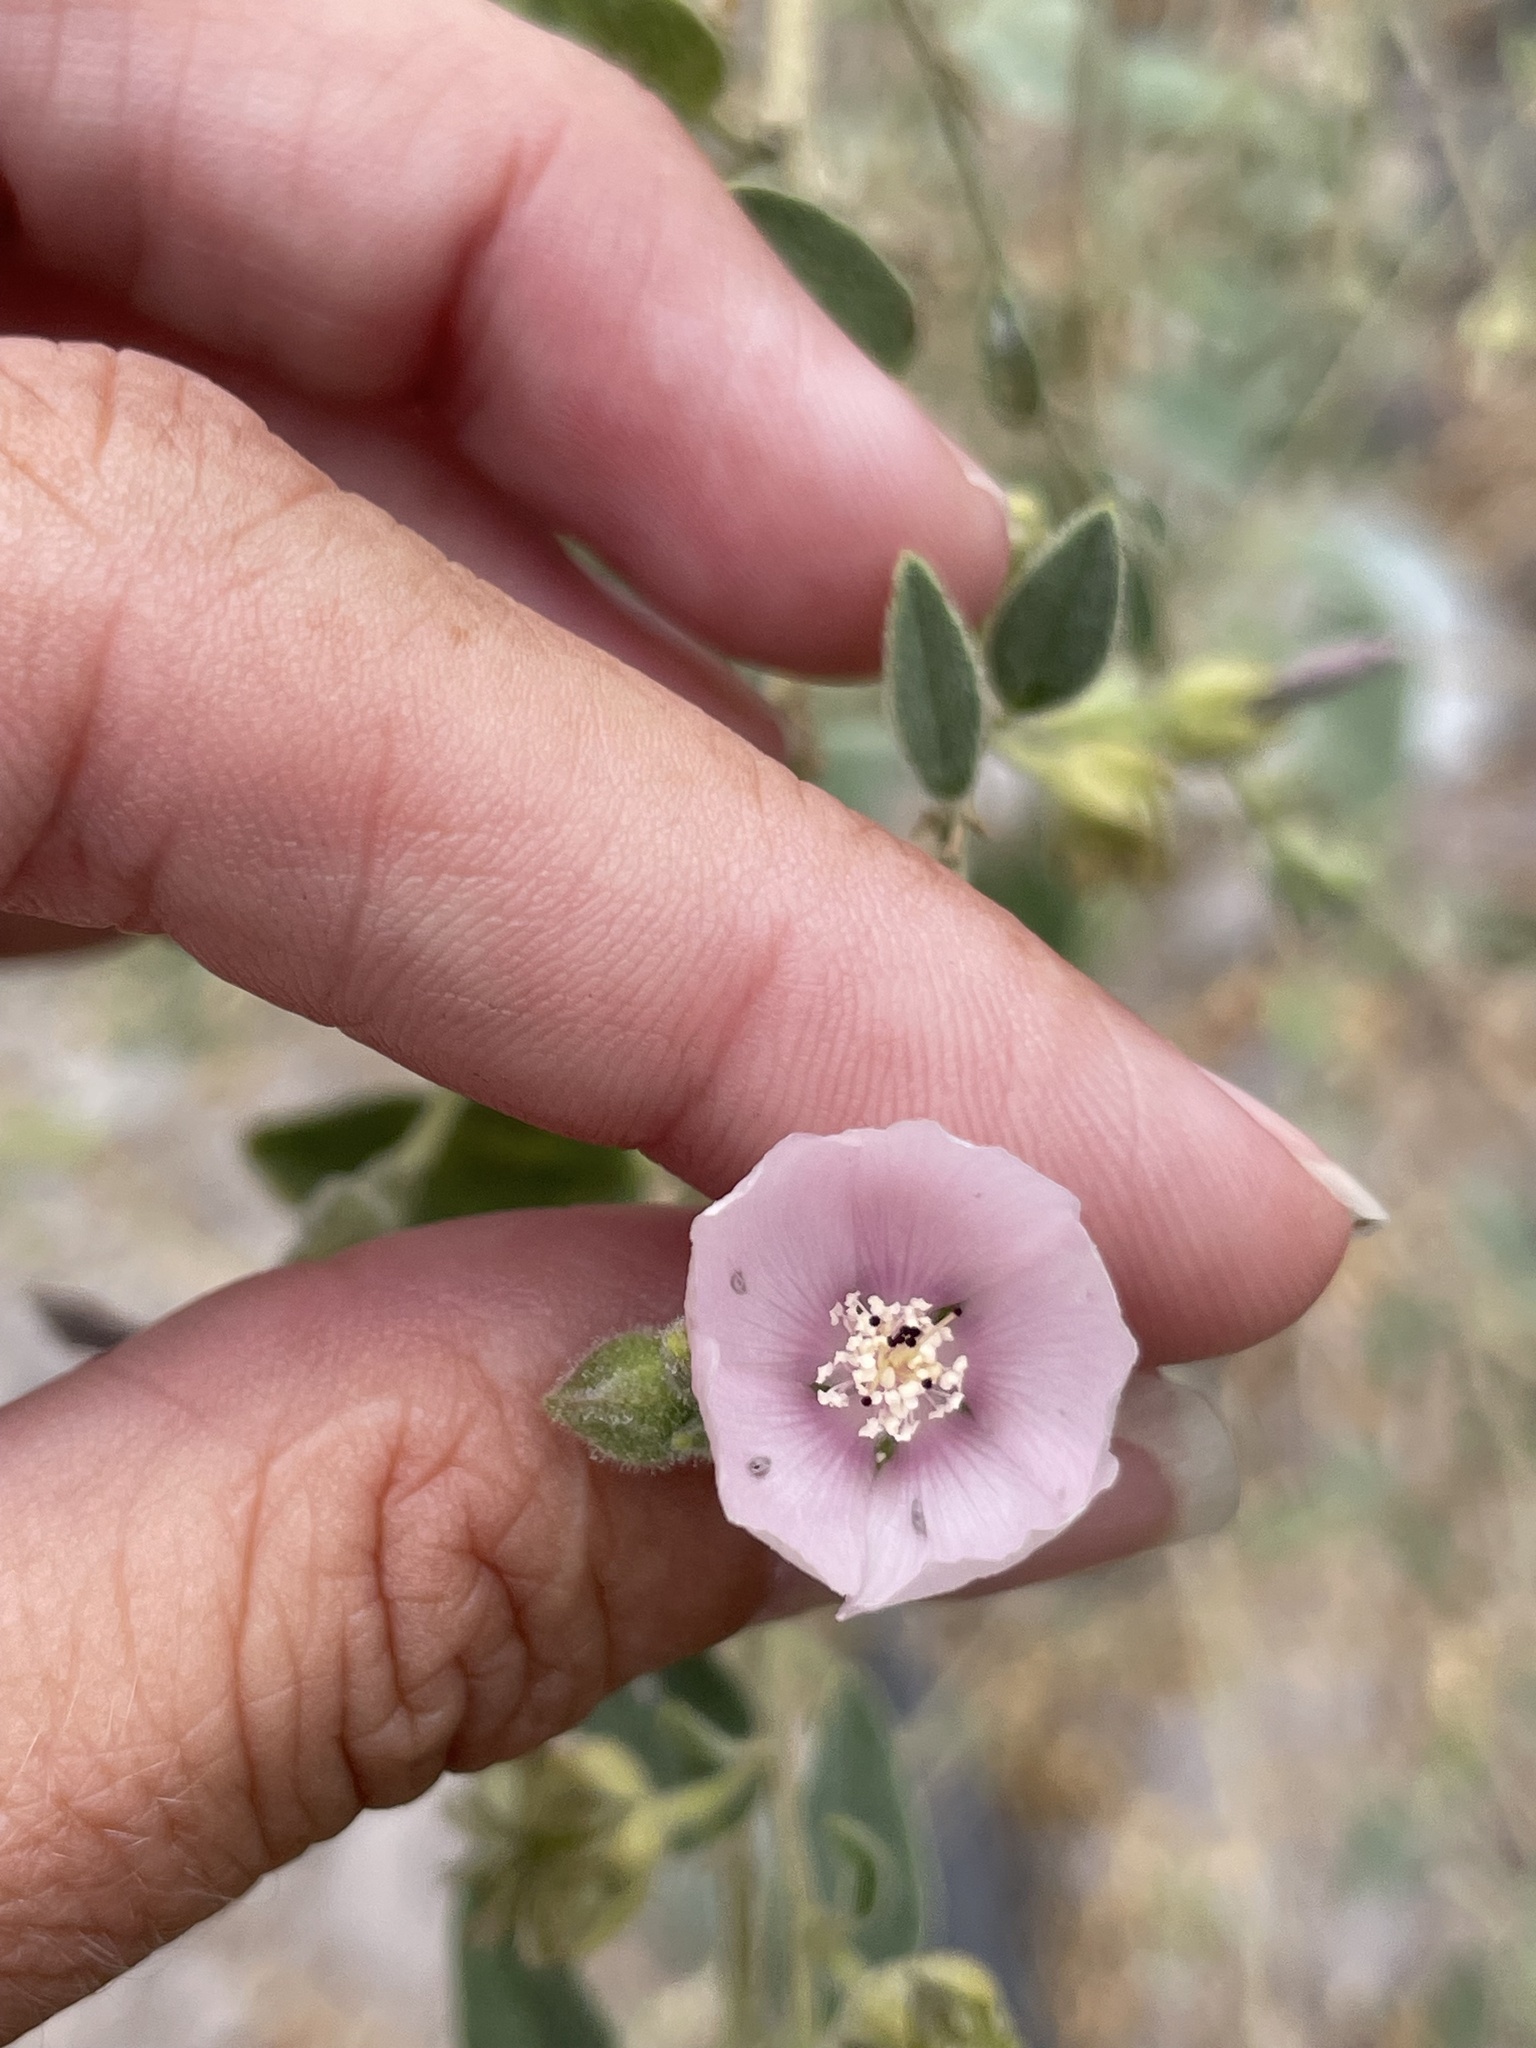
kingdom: Plantae
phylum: Tracheophyta
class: Magnoliopsida
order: Malvales
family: Malvaceae
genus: Horsfordia
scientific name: Horsfordia alata
